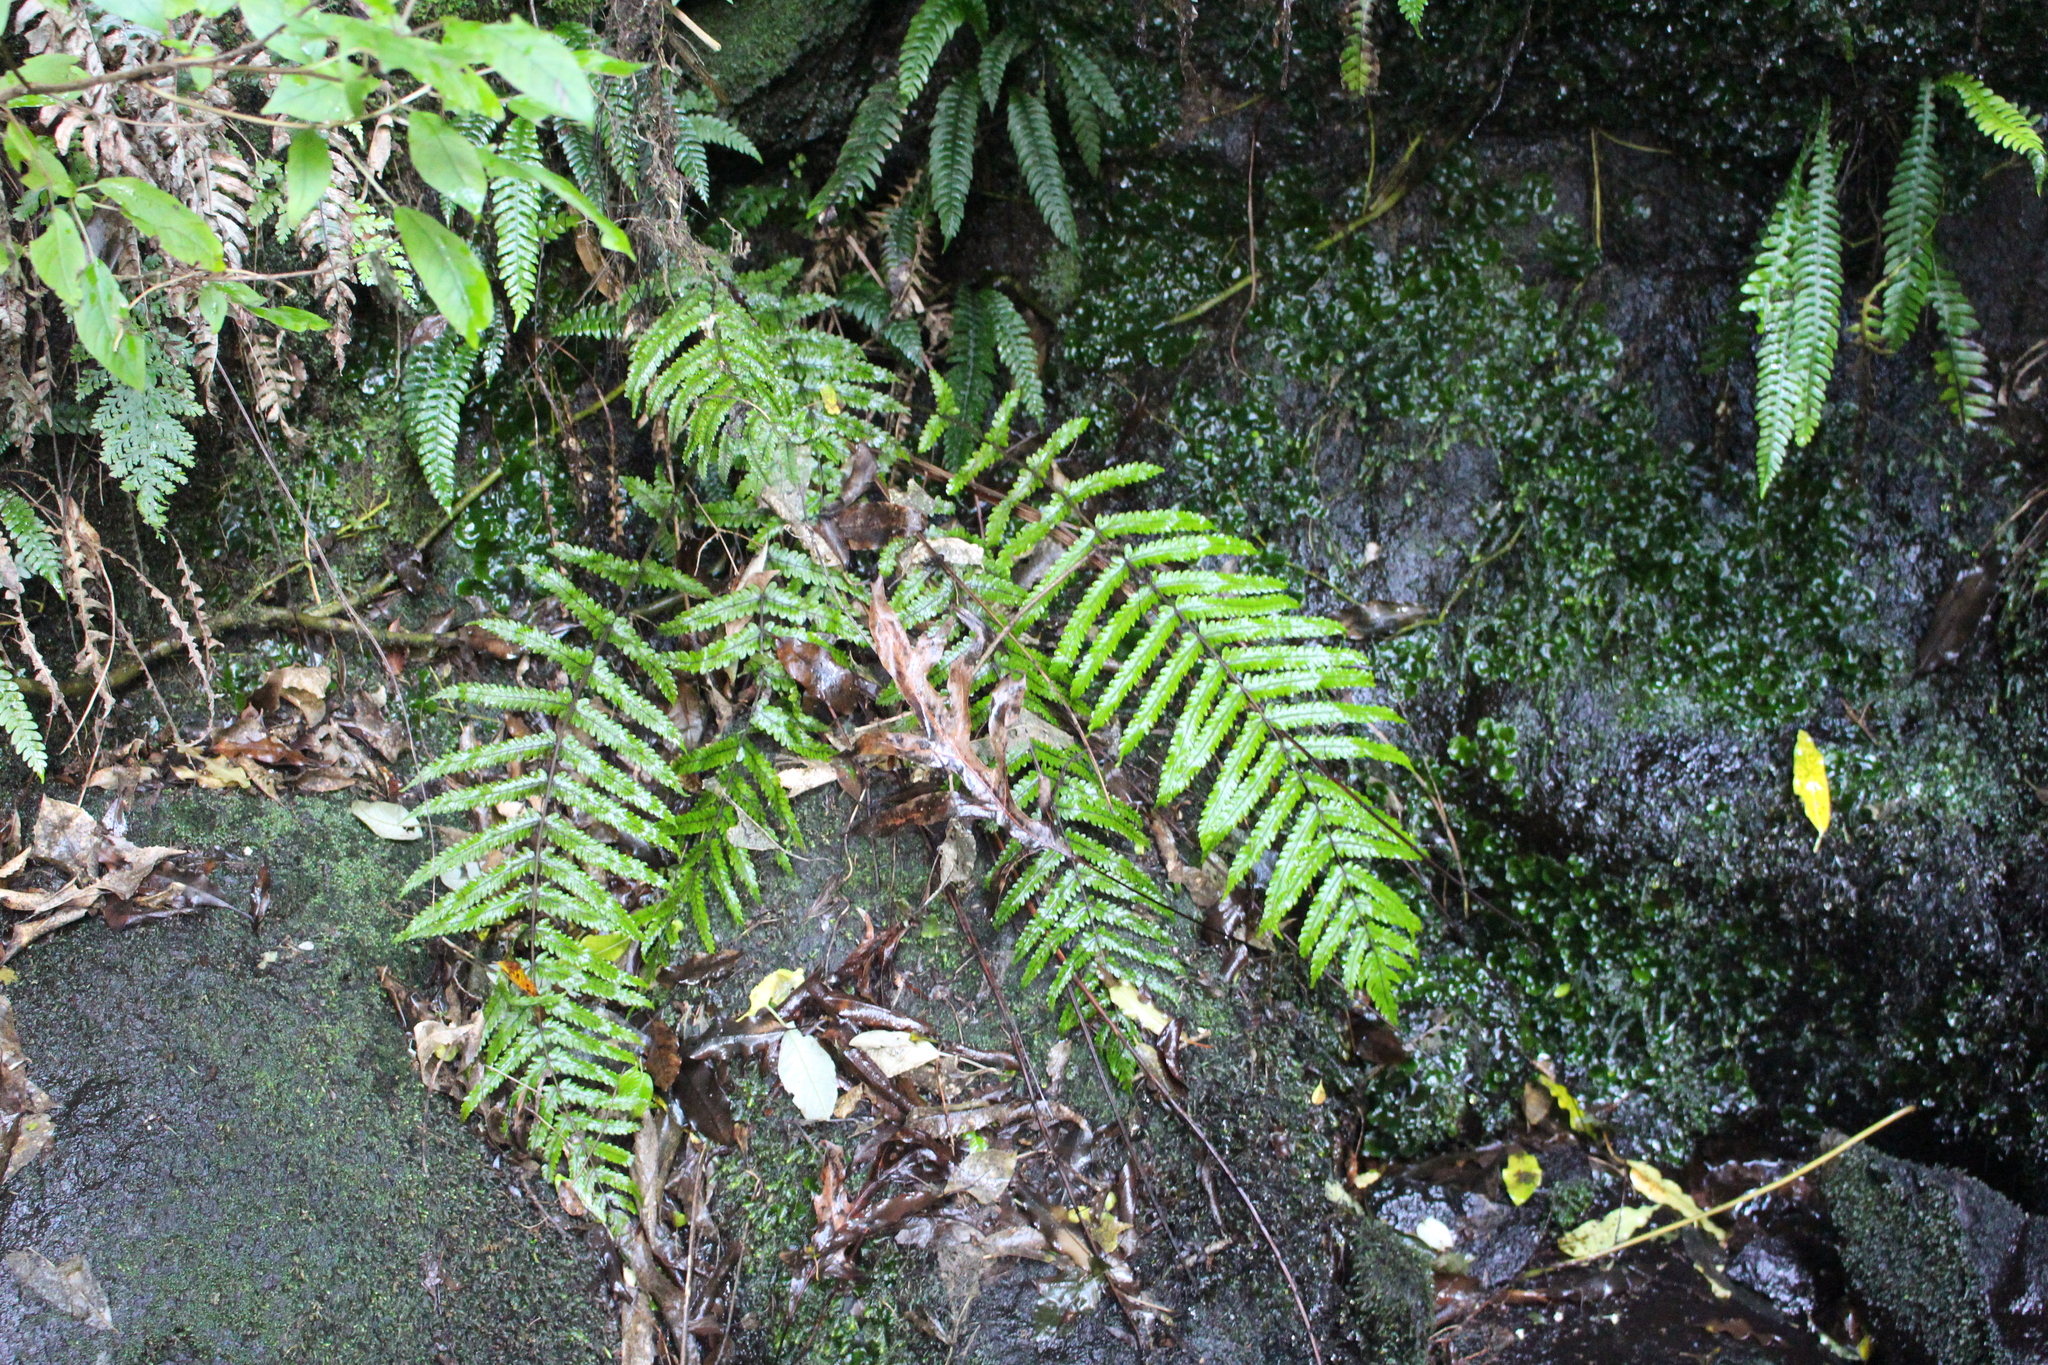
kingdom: Plantae
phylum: Tracheophyta
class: Polypodiopsida
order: Polypodiales
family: Thelypteridaceae
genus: Pakau
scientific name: Pakau pennigera
